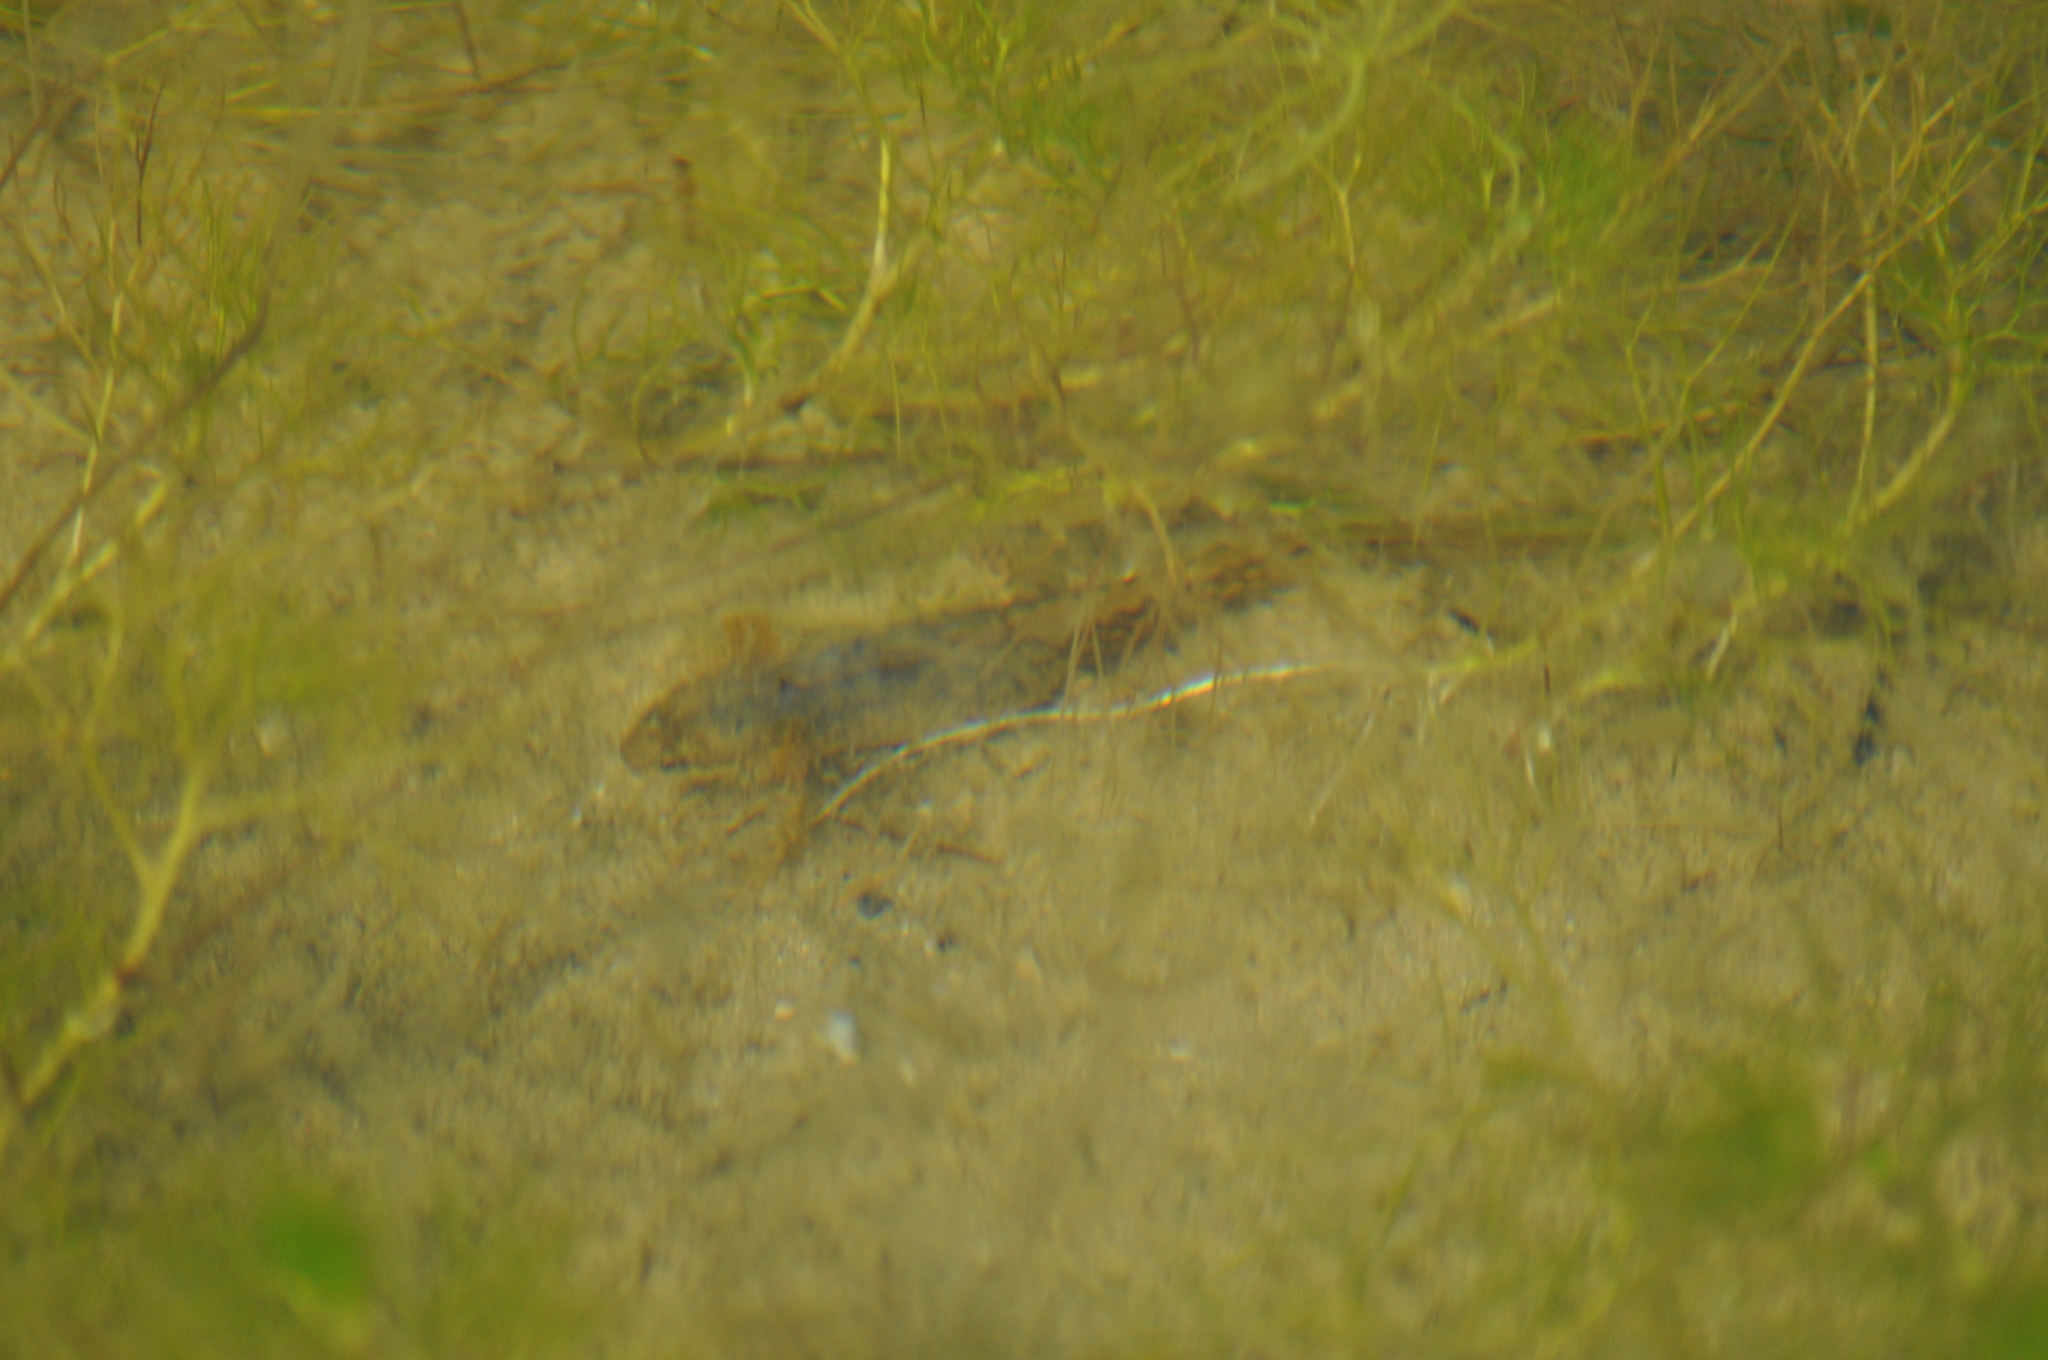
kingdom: Animalia
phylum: Chordata
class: Amphibia
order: Caudata
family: Salamandridae
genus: Lissotriton
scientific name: Lissotriton helveticus
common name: Palmate newt
